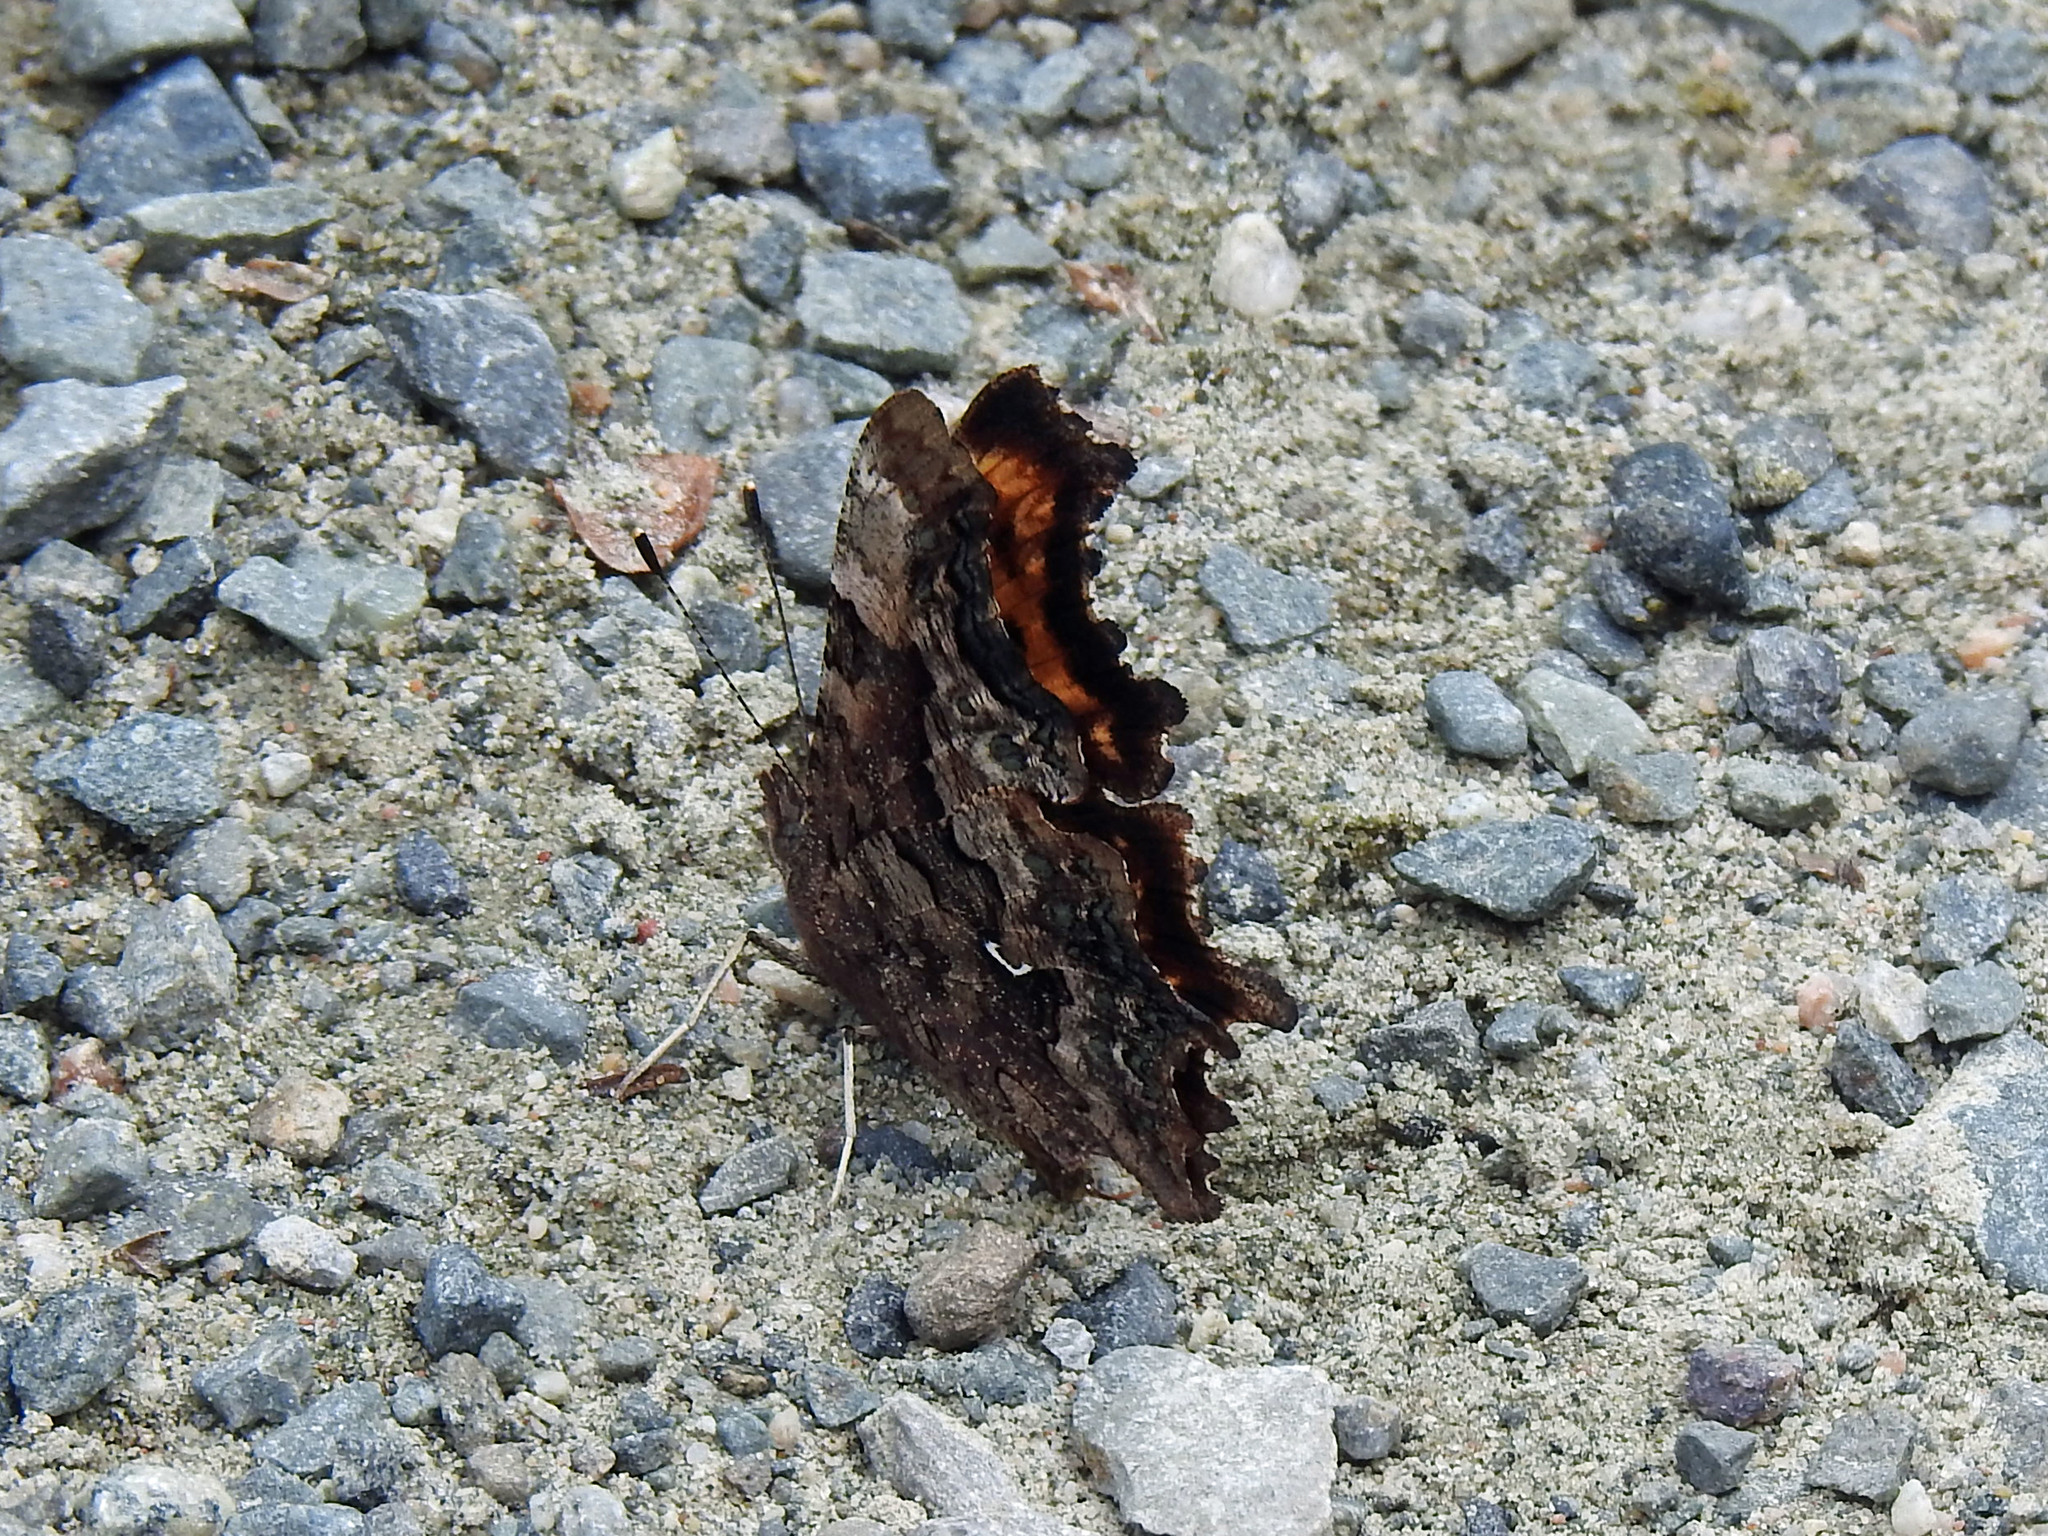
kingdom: Animalia
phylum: Arthropoda
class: Insecta
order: Lepidoptera
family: Nymphalidae
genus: Polygonia
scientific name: Polygonia faunus
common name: Green comma
